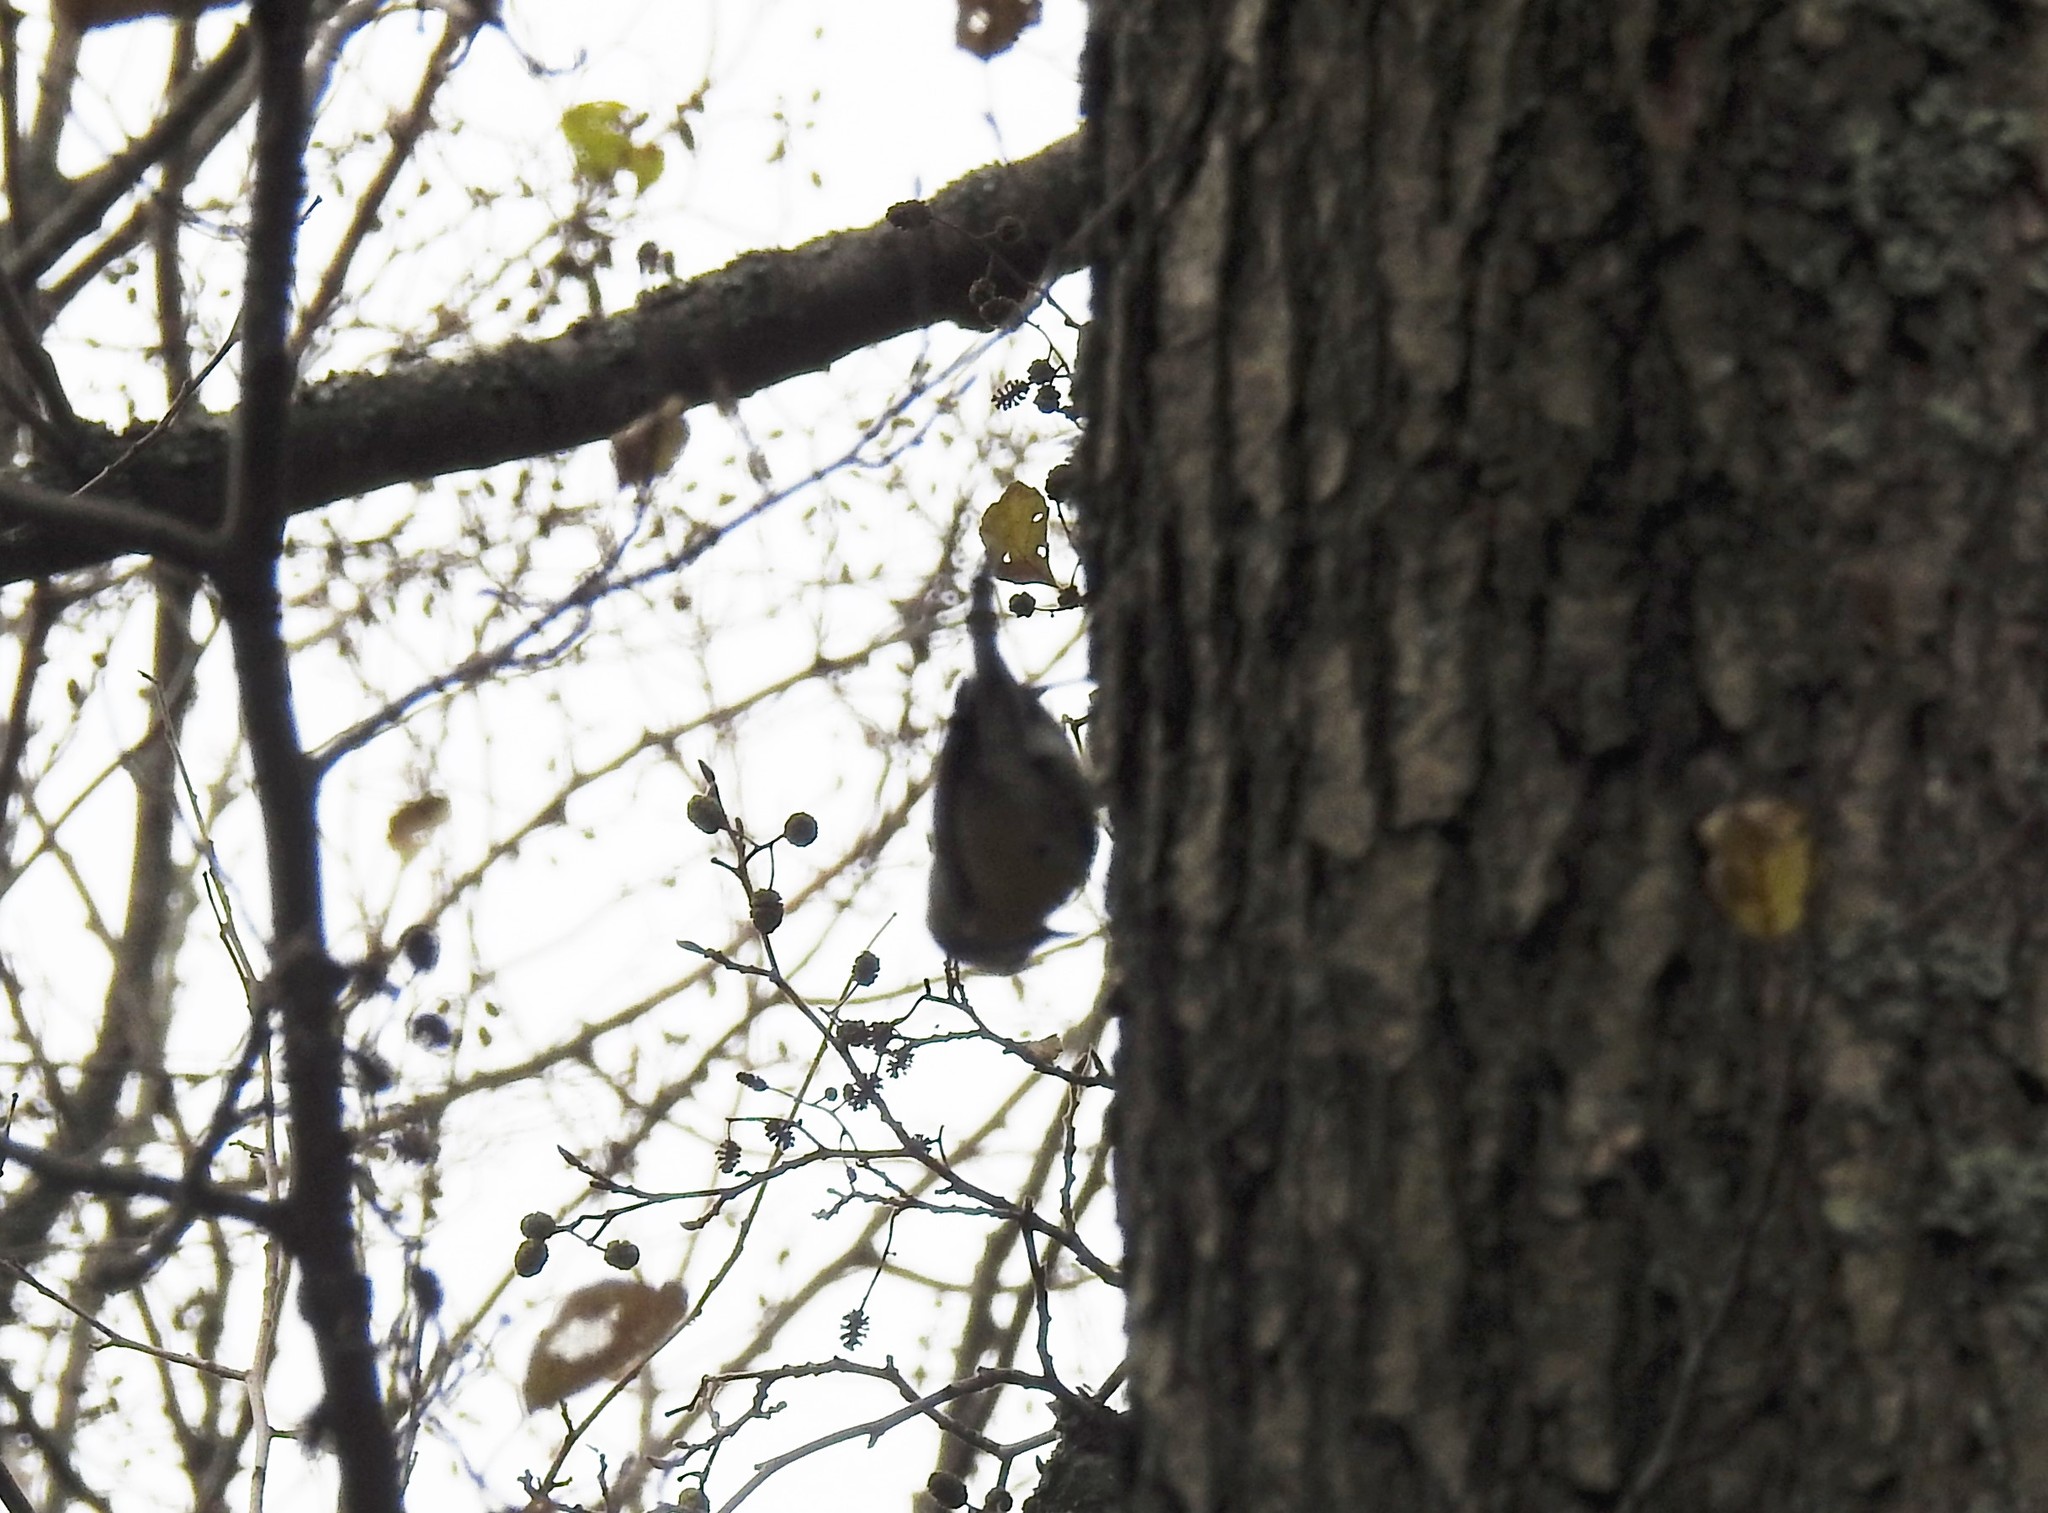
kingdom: Animalia
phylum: Chordata
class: Aves
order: Passeriformes
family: Sittidae
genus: Sitta
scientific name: Sitta europaea
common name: Eurasian nuthatch
